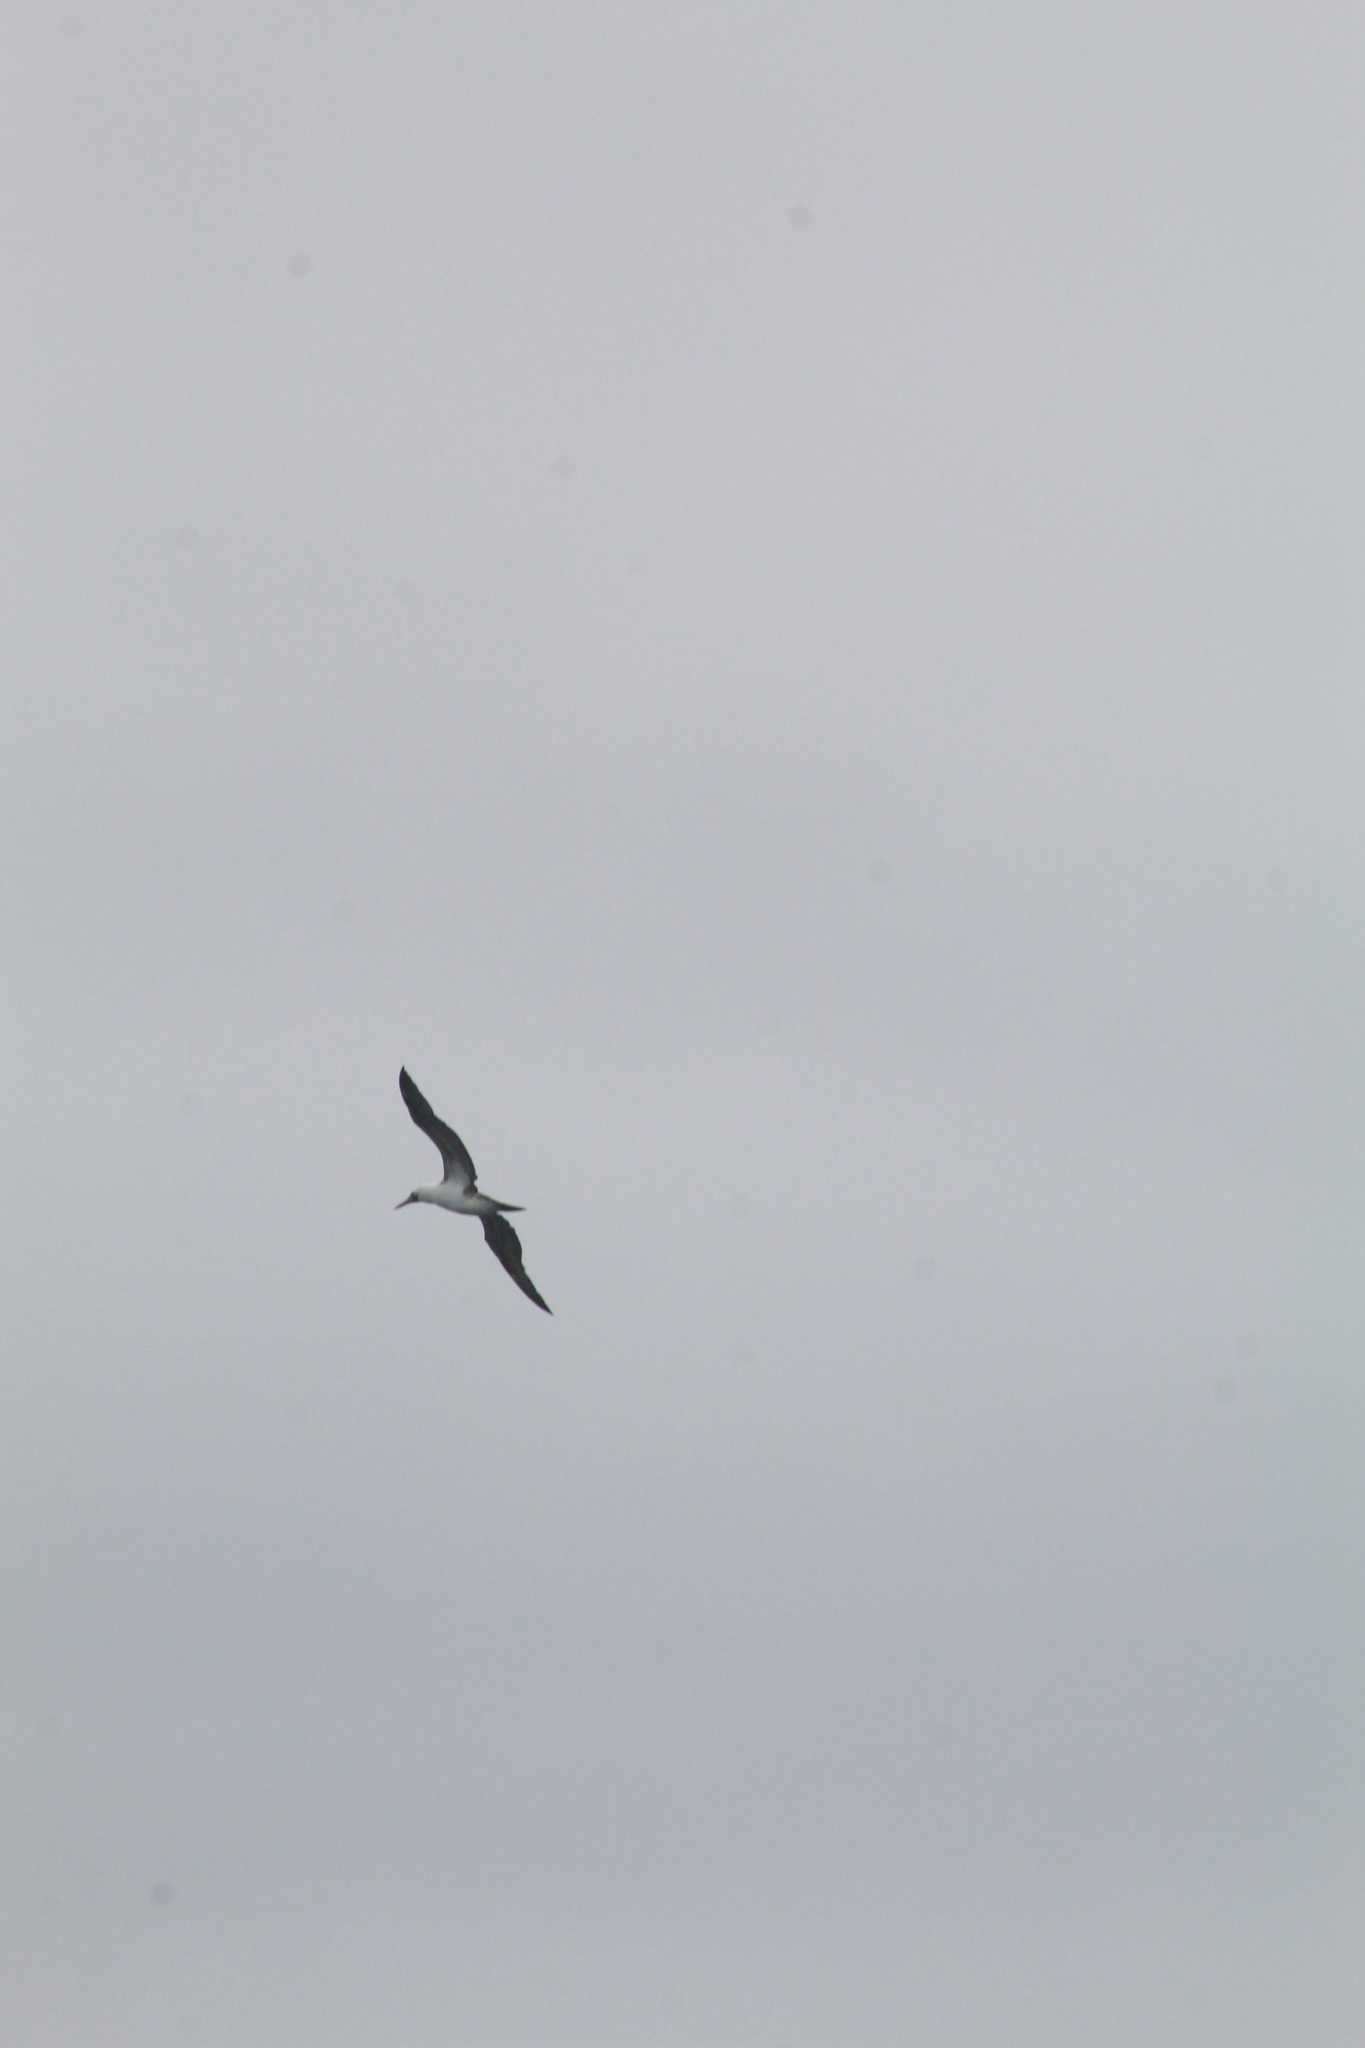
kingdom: Animalia
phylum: Chordata
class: Aves
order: Suliformes
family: Sulidae
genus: Sula
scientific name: Sula variegata
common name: Peruvian booby
